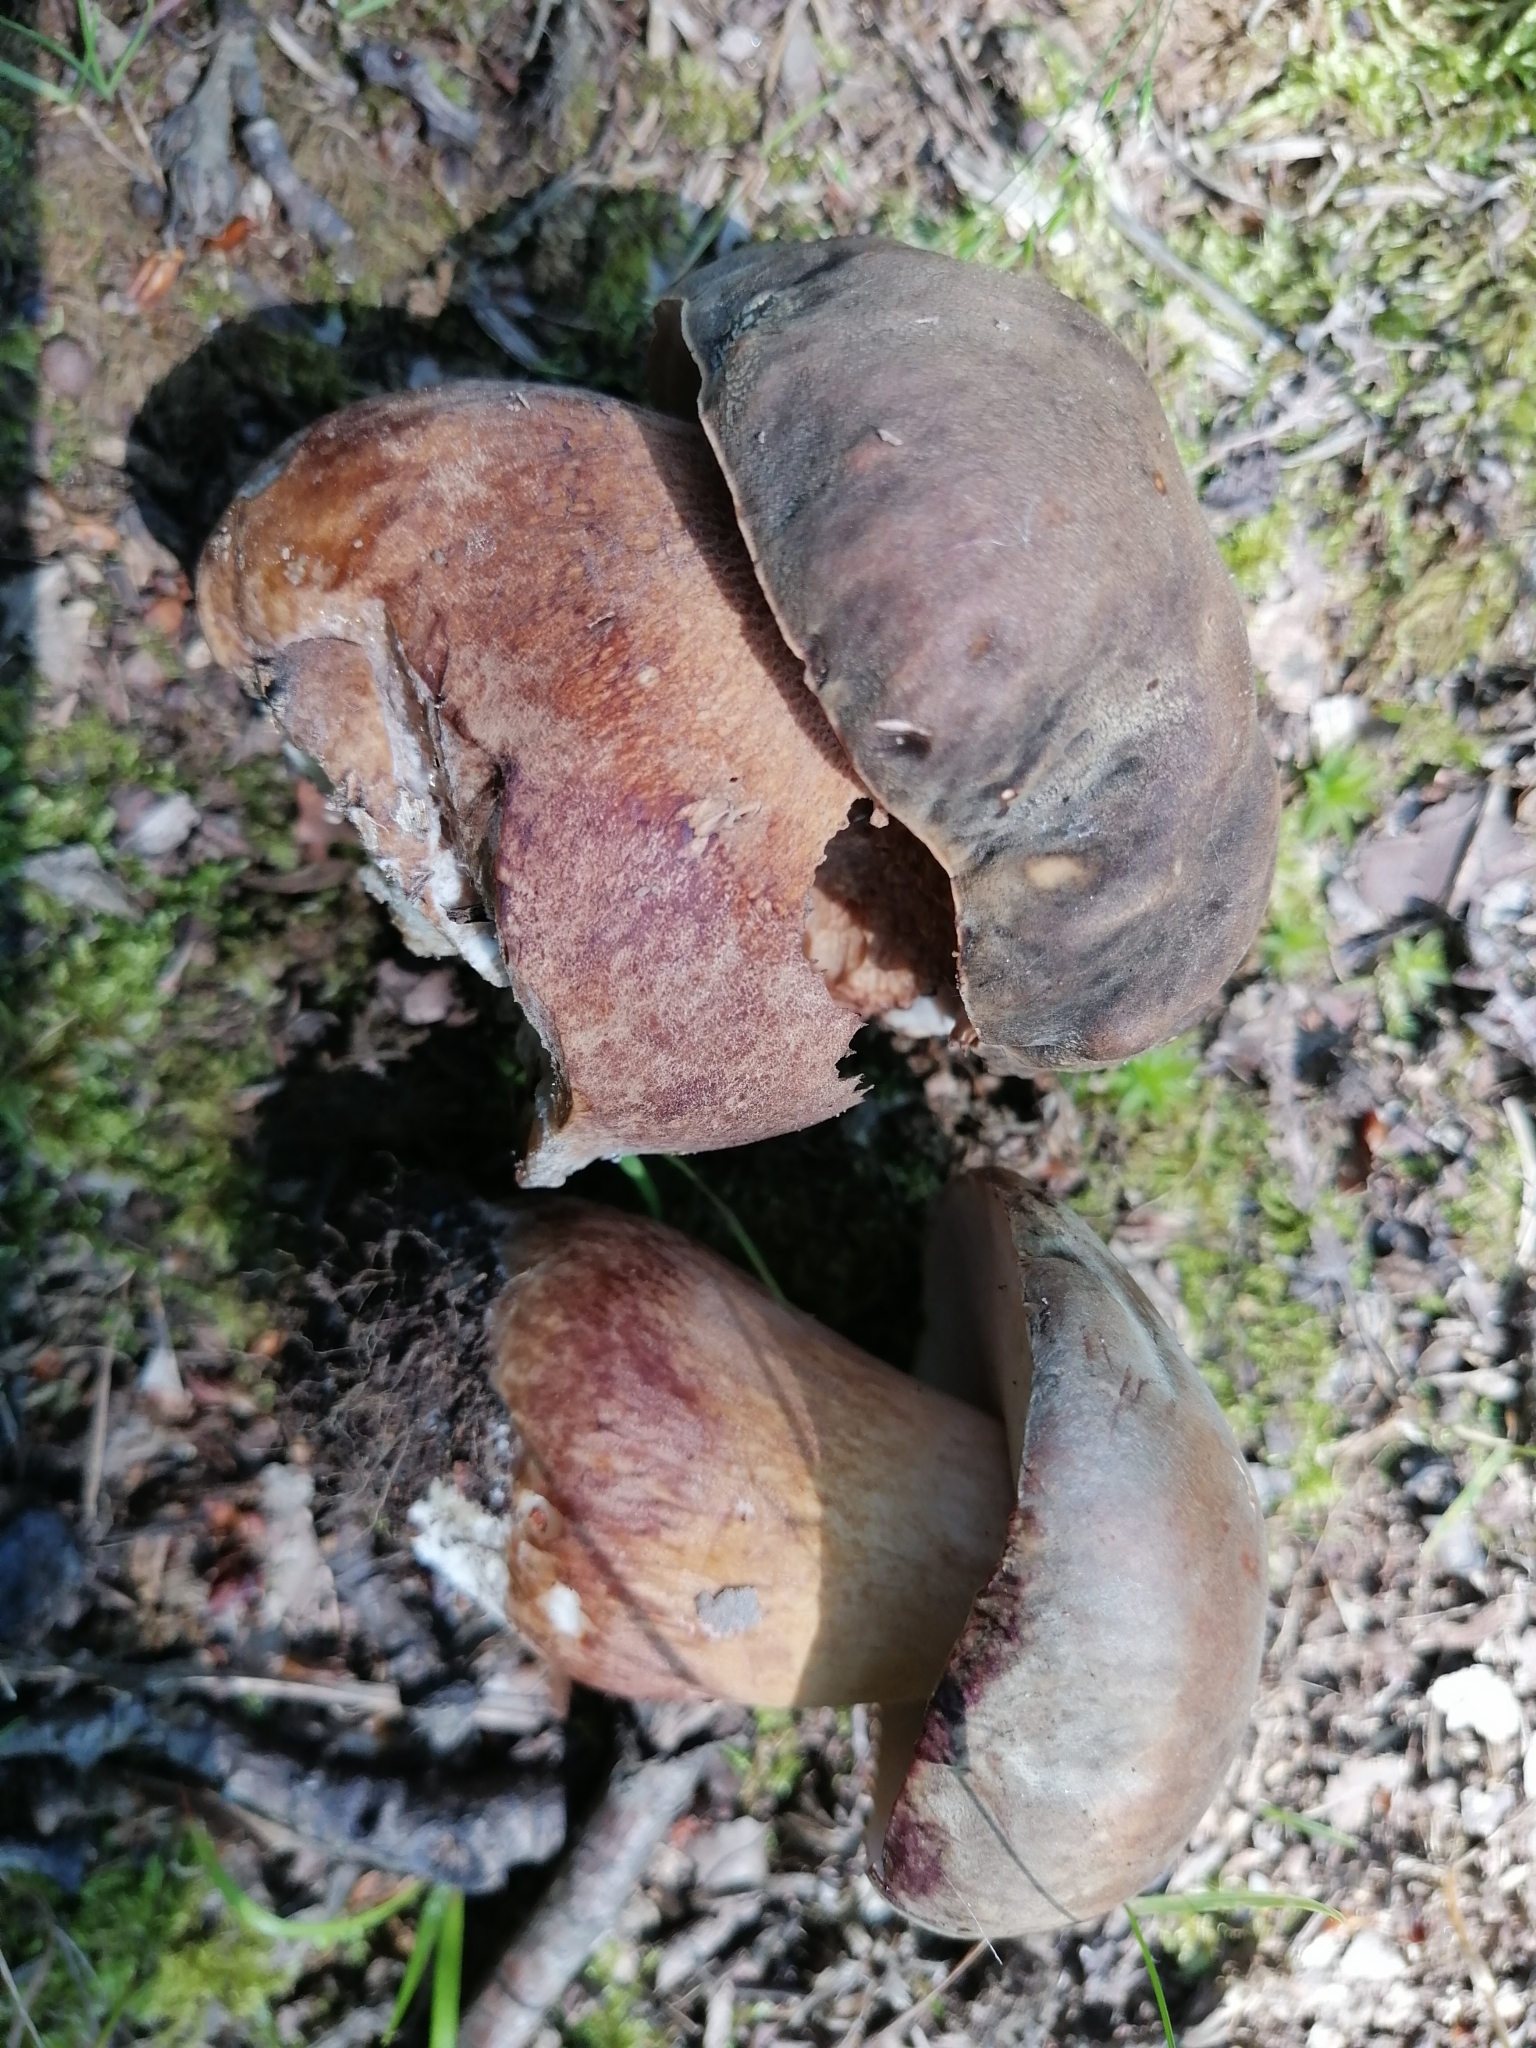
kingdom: Fungi
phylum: Basidiomycota
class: Agaricomycetes
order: Boletales
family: Boletaceae
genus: Boletus
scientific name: Boletus aereus
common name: Bronze bolete
